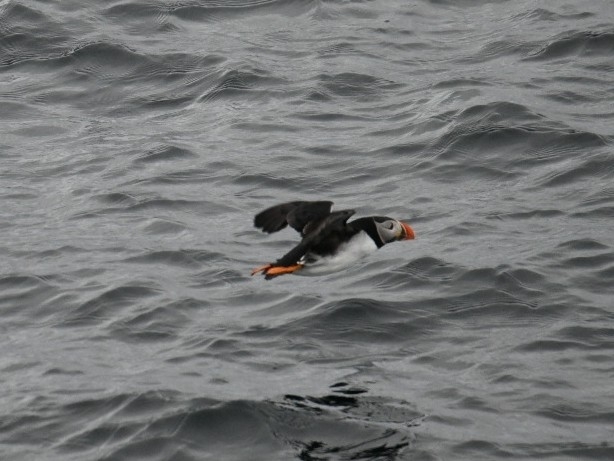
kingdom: Animalia
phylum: Chordata
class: Aves
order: Charadriiformes
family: Alcidae
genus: Fratercula
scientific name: Fratercula arctica
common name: Atlantic puffin
